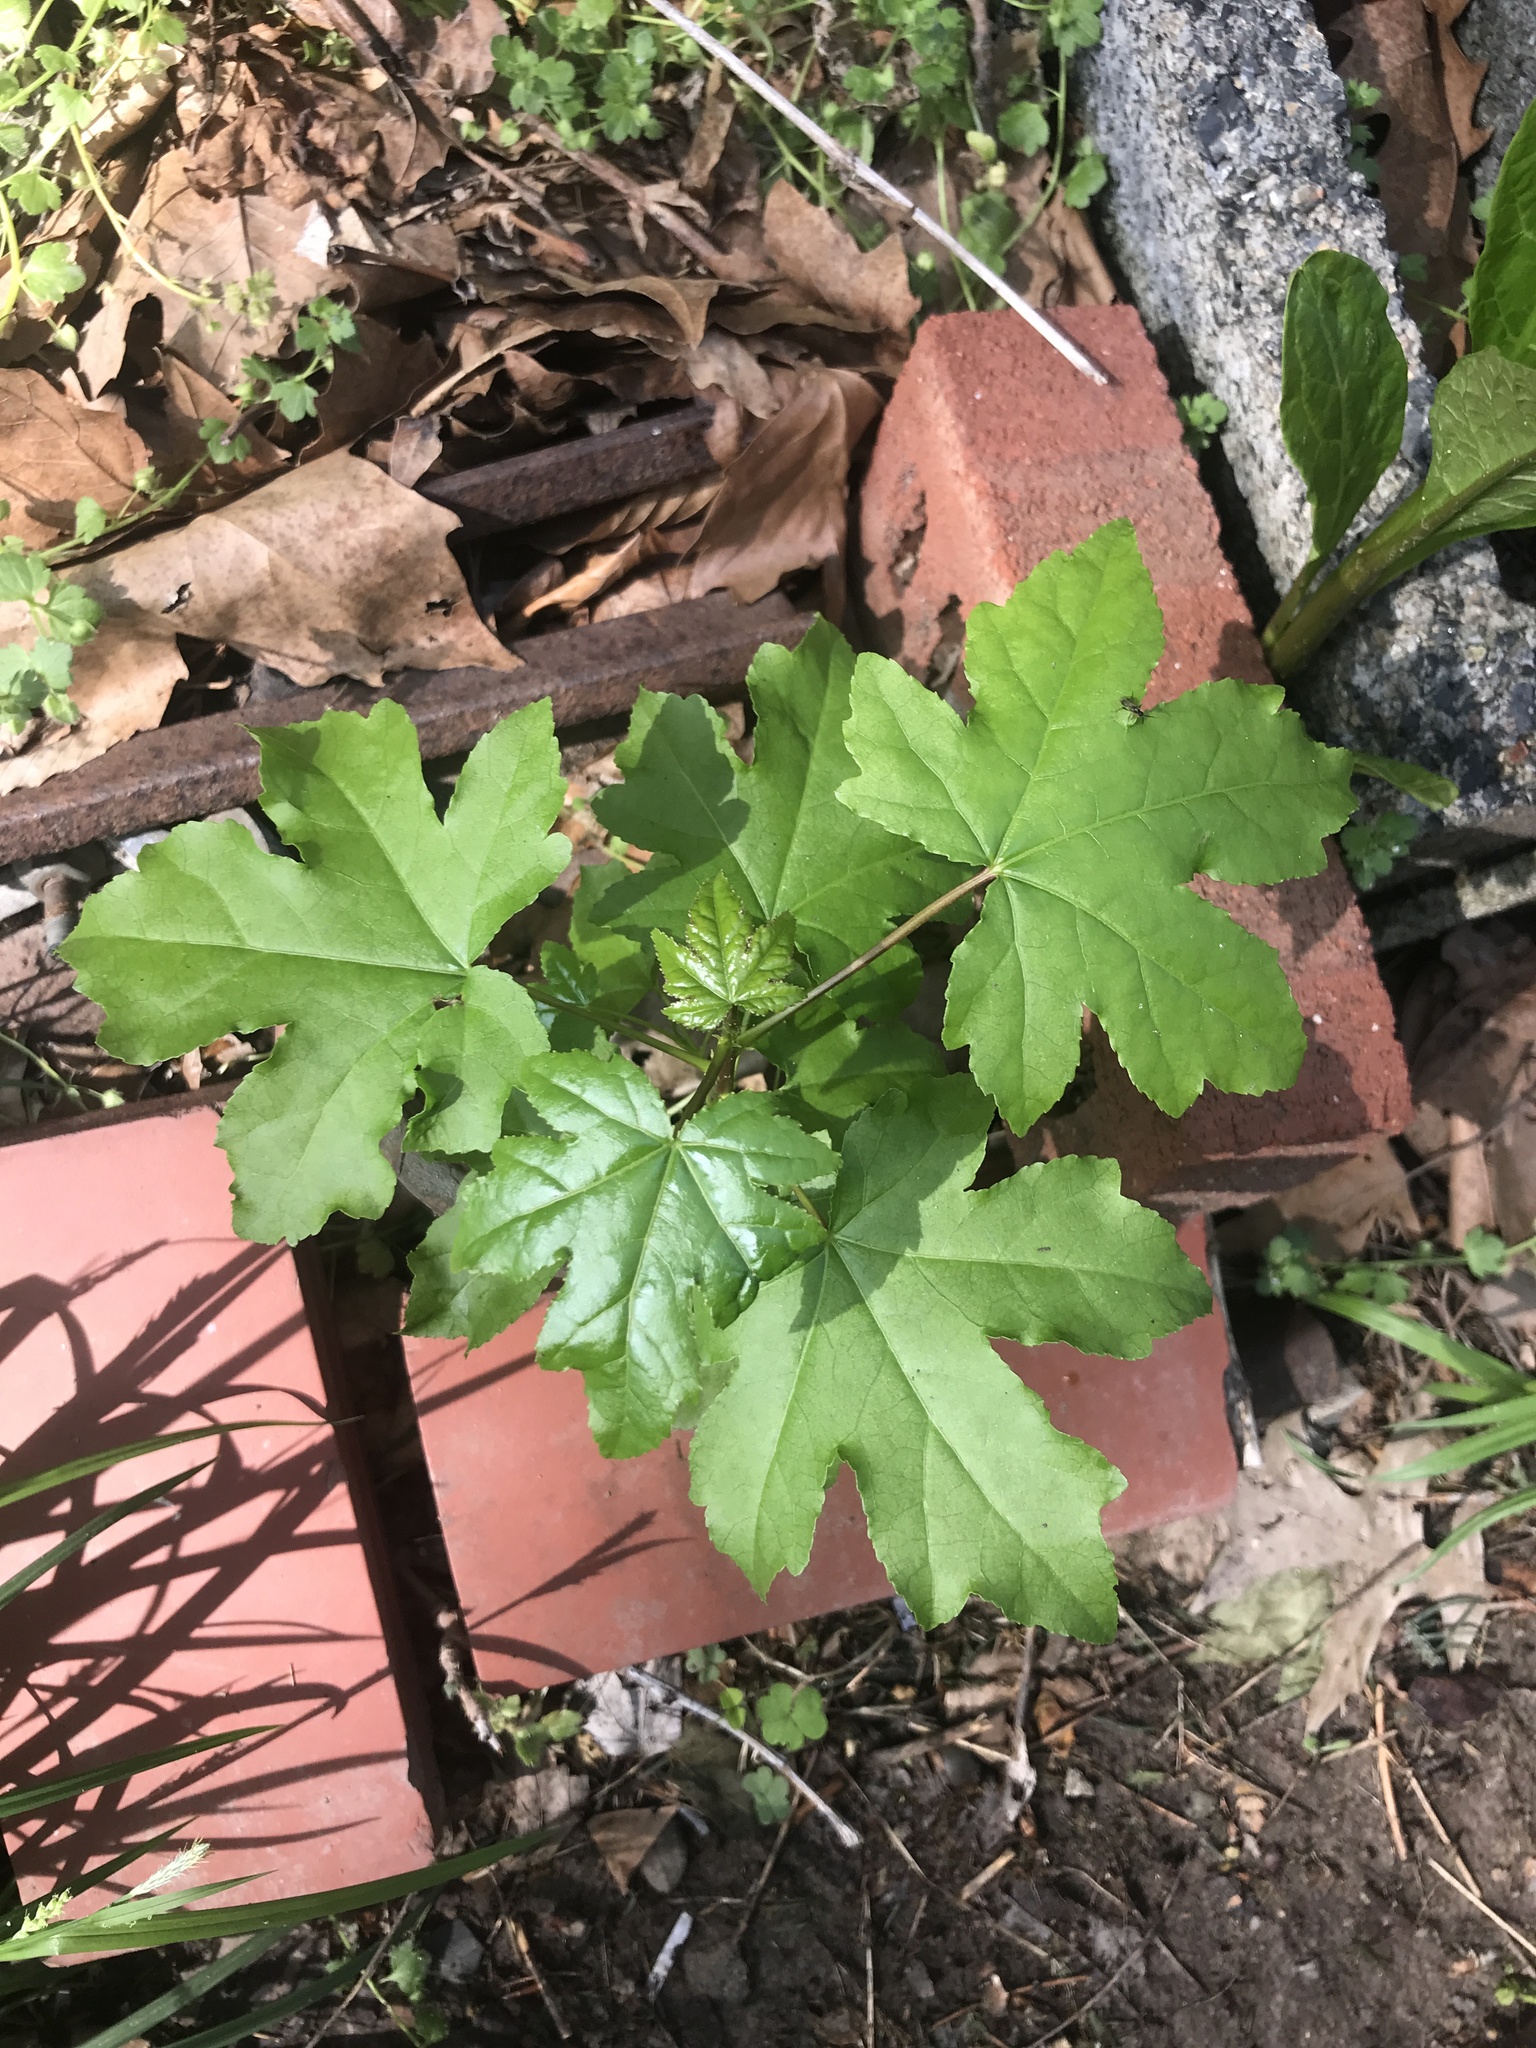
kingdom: Plantae
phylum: Tracheophyta
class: Magnoliopsida
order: Saxifragales
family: Altingiaceae
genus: Liquidambar
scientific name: Liquidambar styraciflua
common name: Sweet gum
